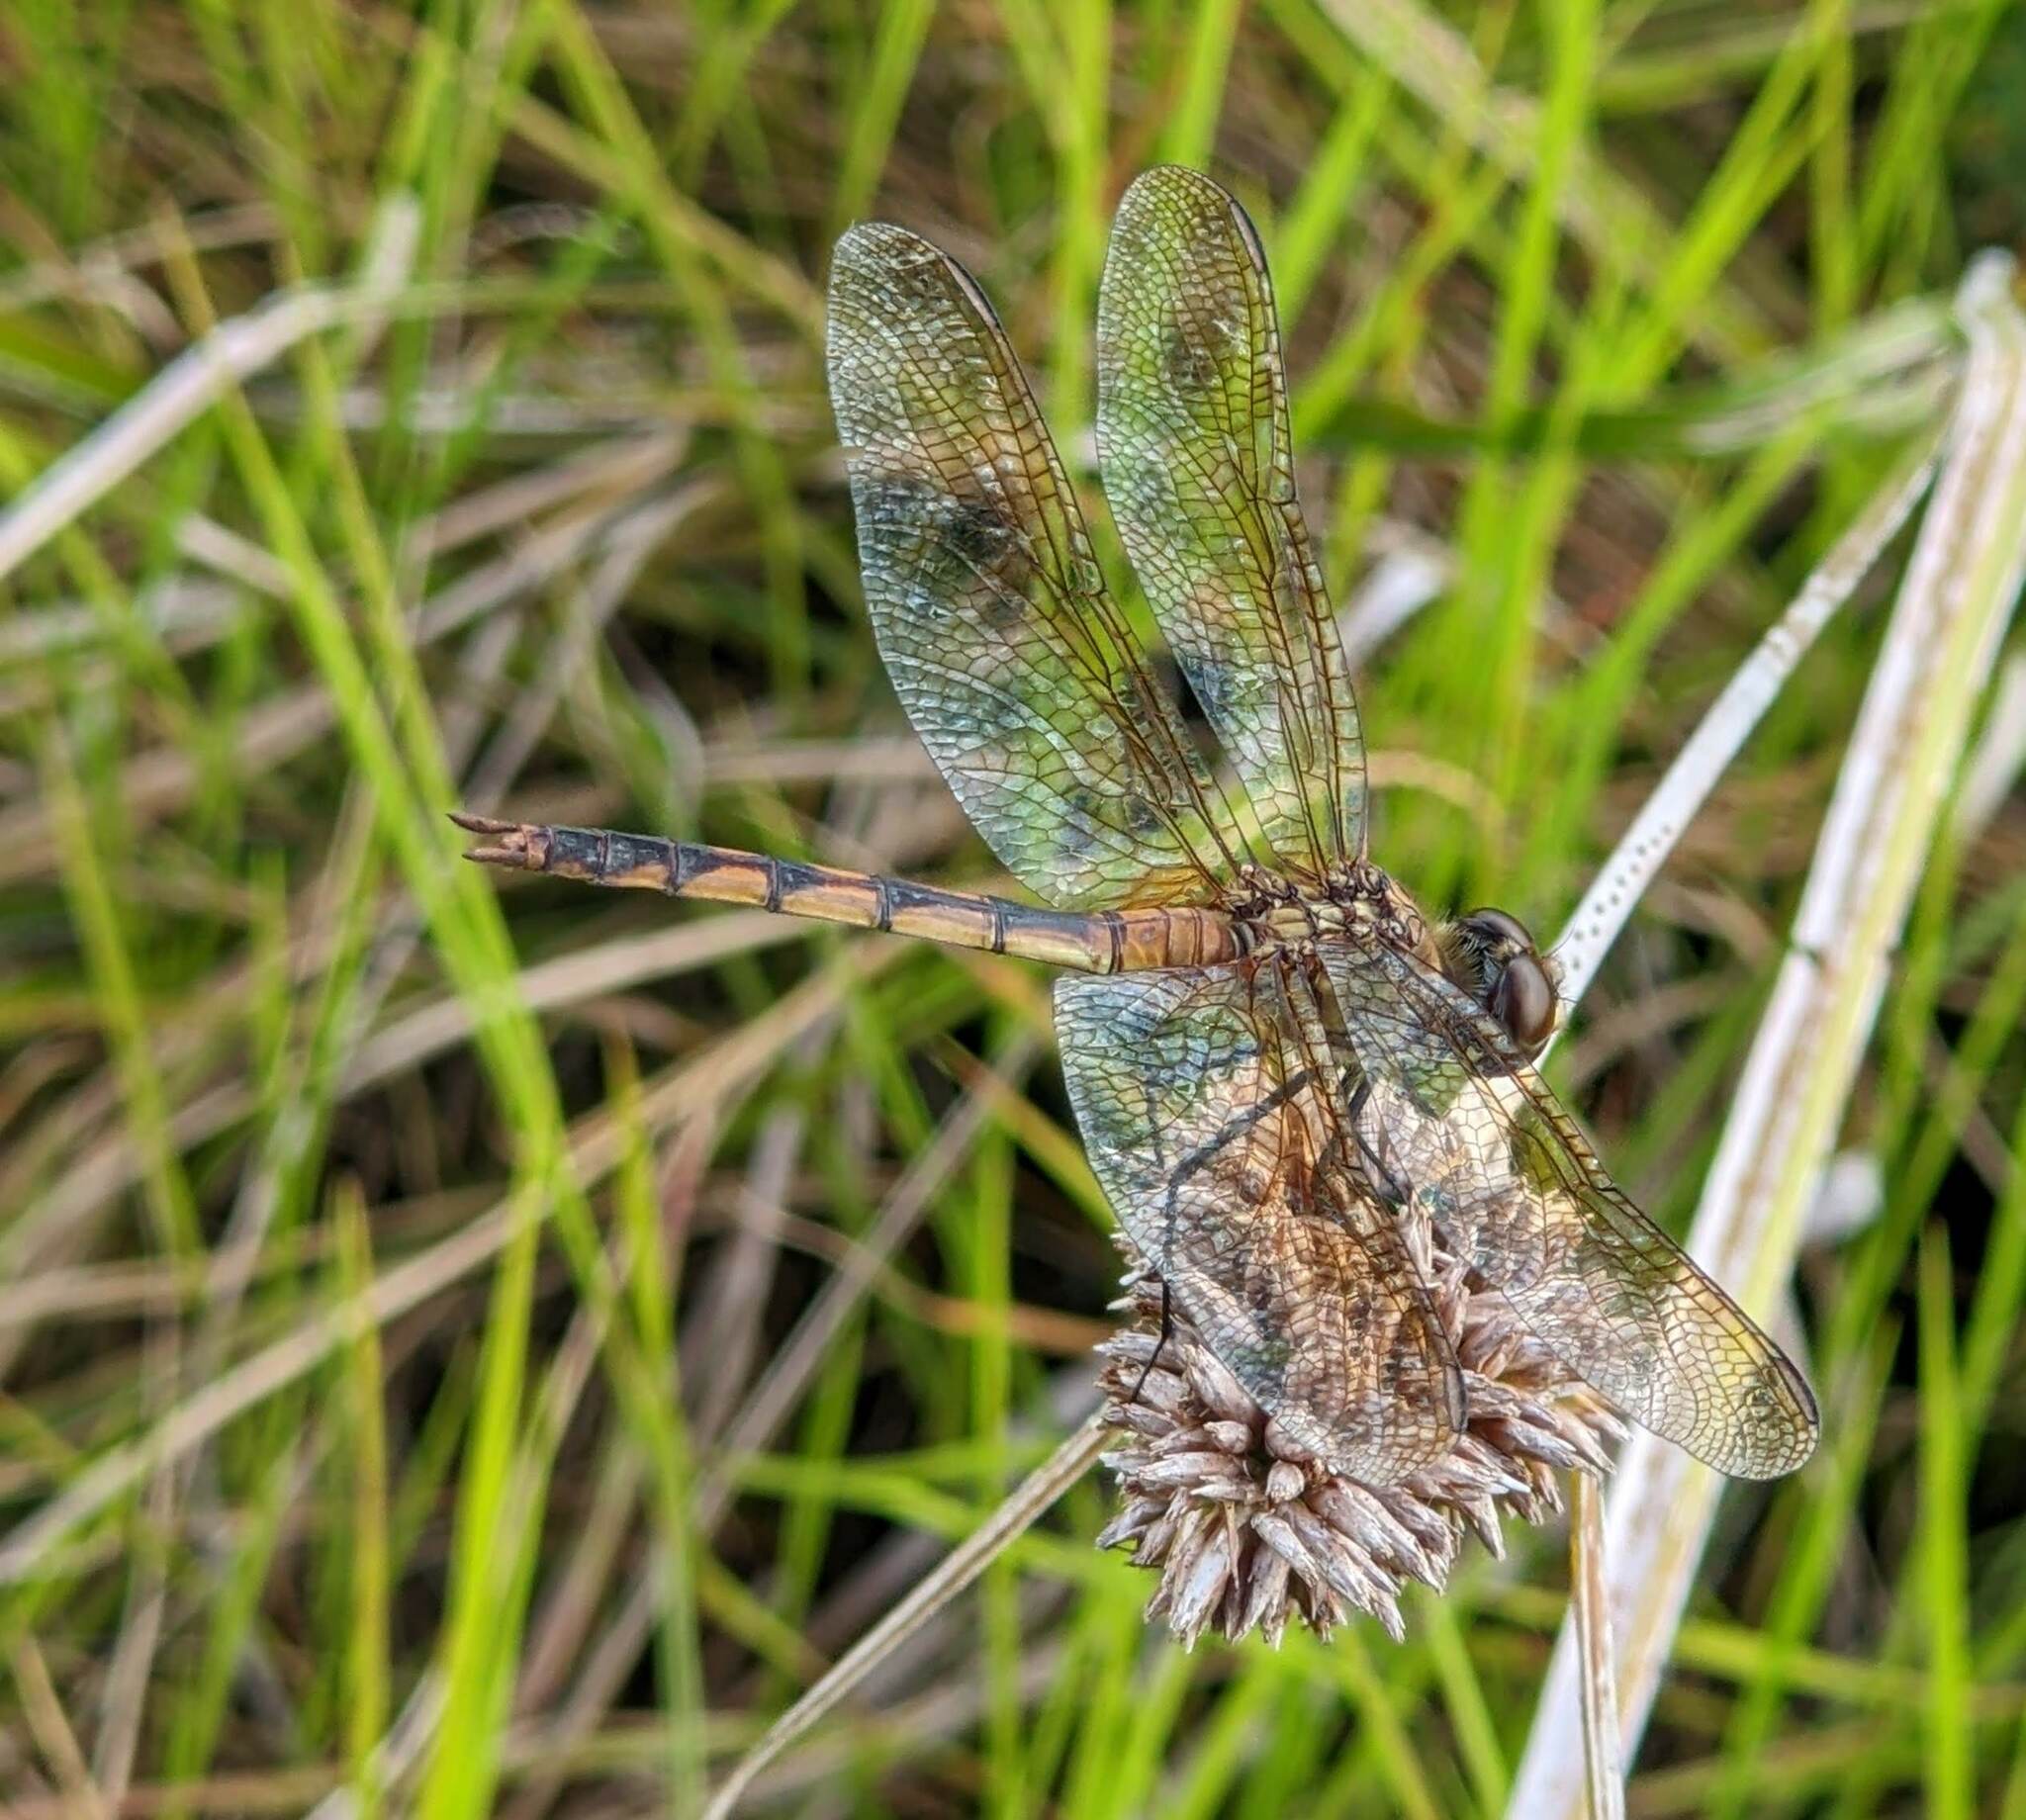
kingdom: Animalia
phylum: Arthropoda
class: Insecta
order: Odonata
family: Libellulidae
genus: Brachymesia
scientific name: Brachymesia herbida
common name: Tawny pennant
